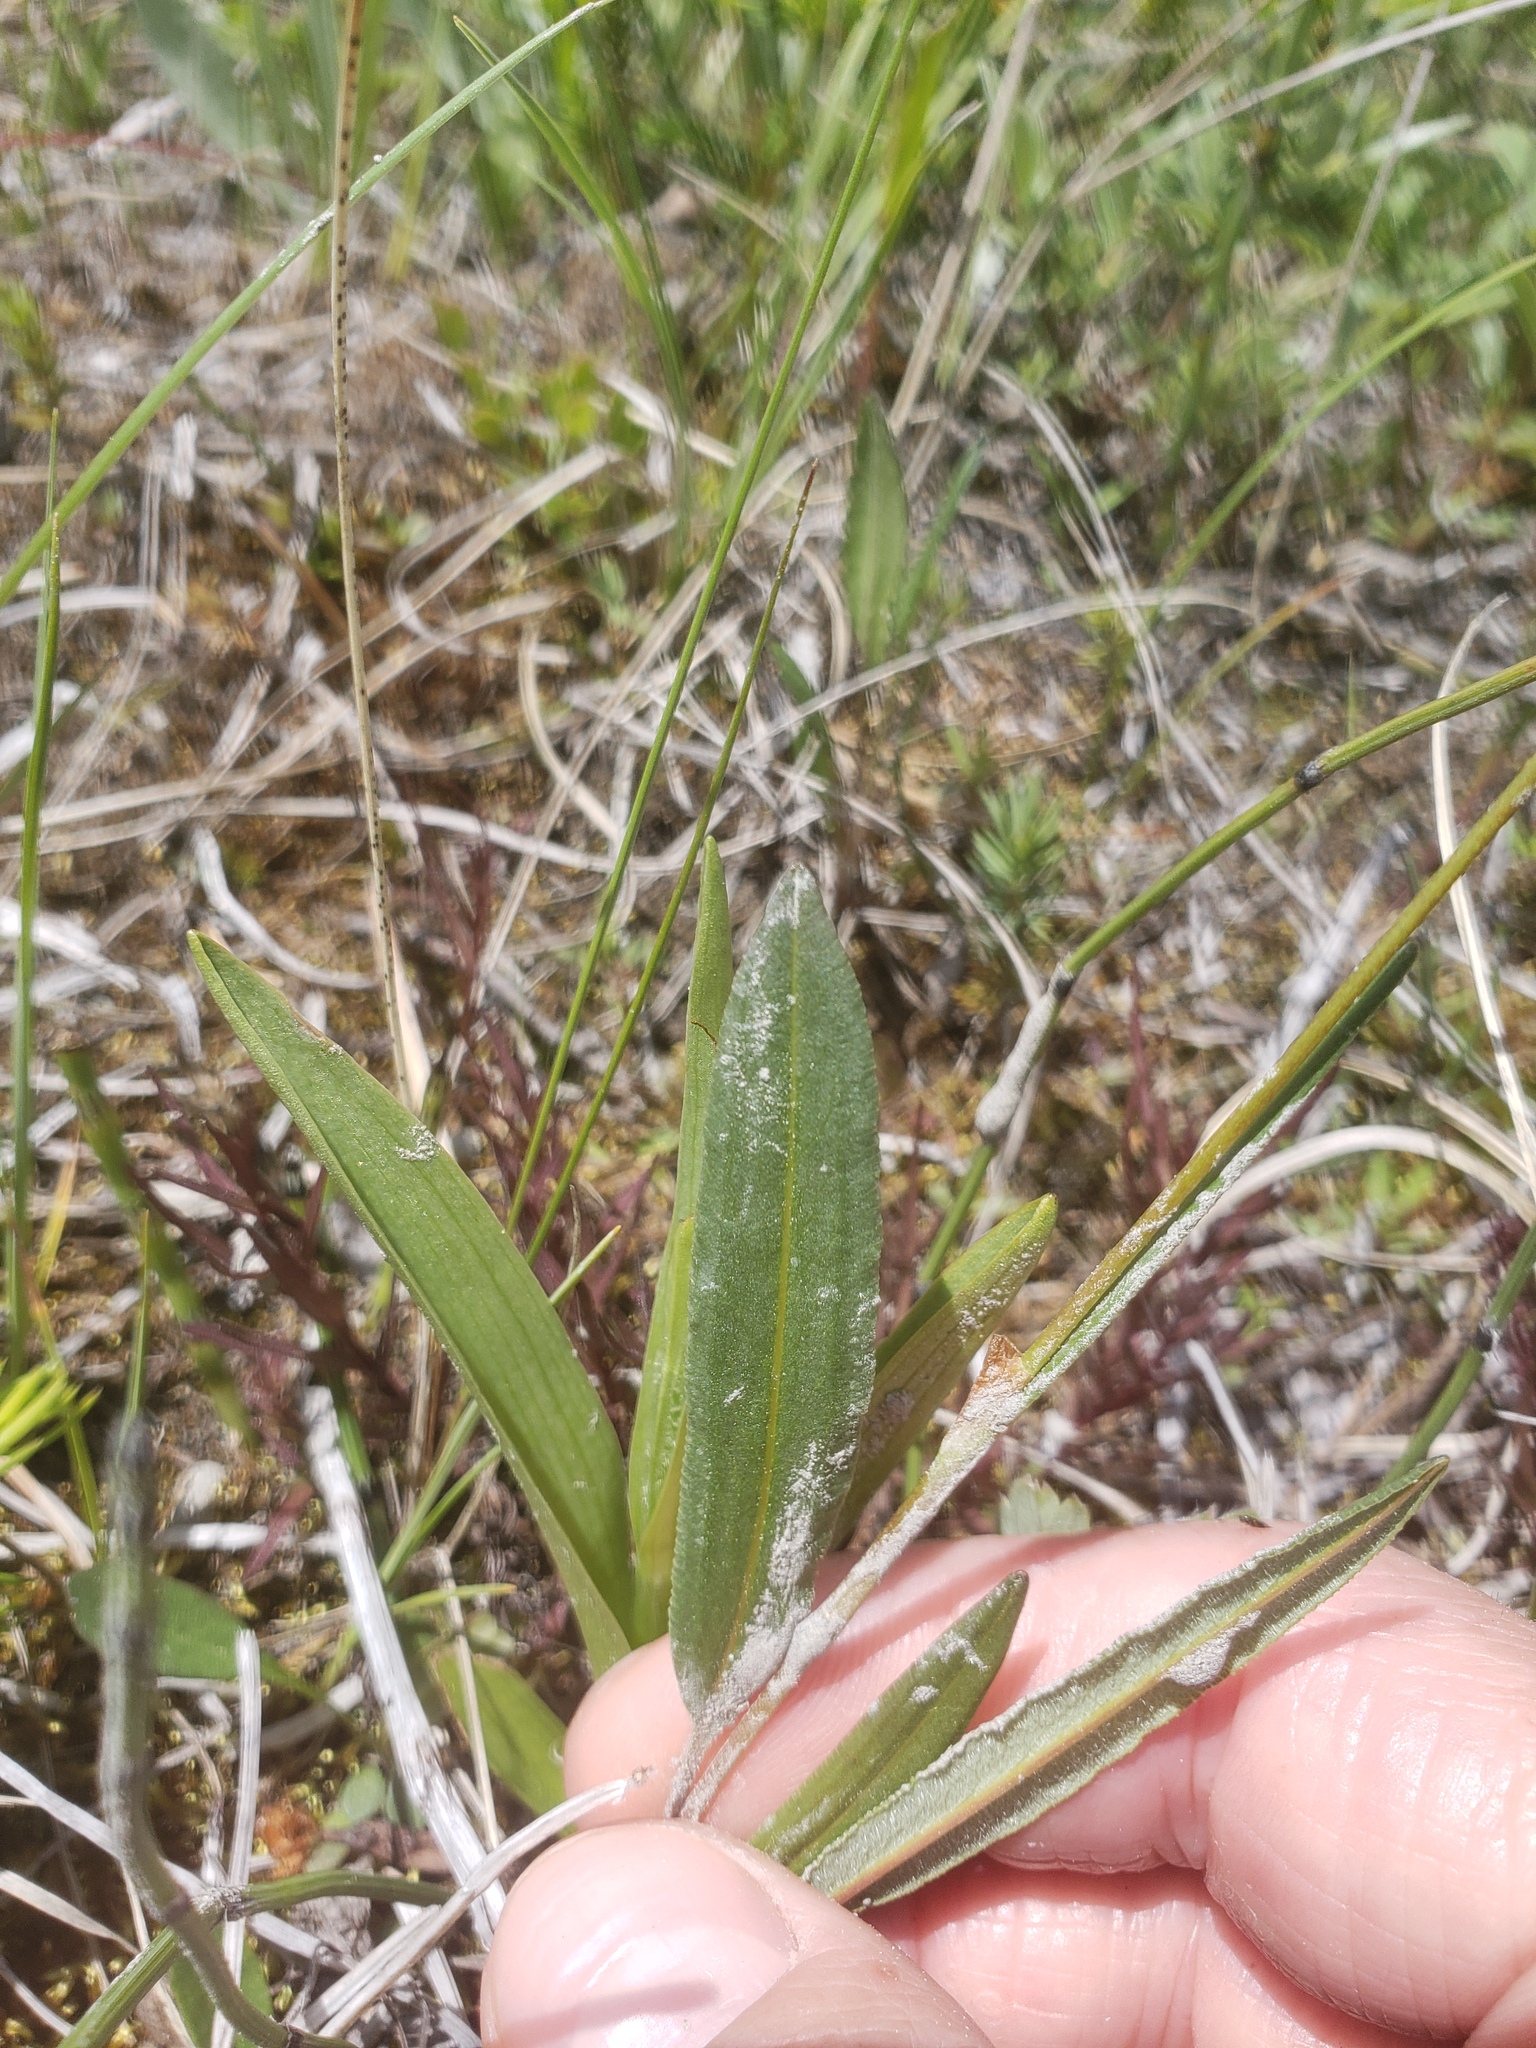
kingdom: Plantae
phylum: Tracheophyta
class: Magnoliopsida
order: Caryophyllales
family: Polygonaceae
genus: Bistorta
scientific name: Bistorta vivipara
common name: Alpine bistort
